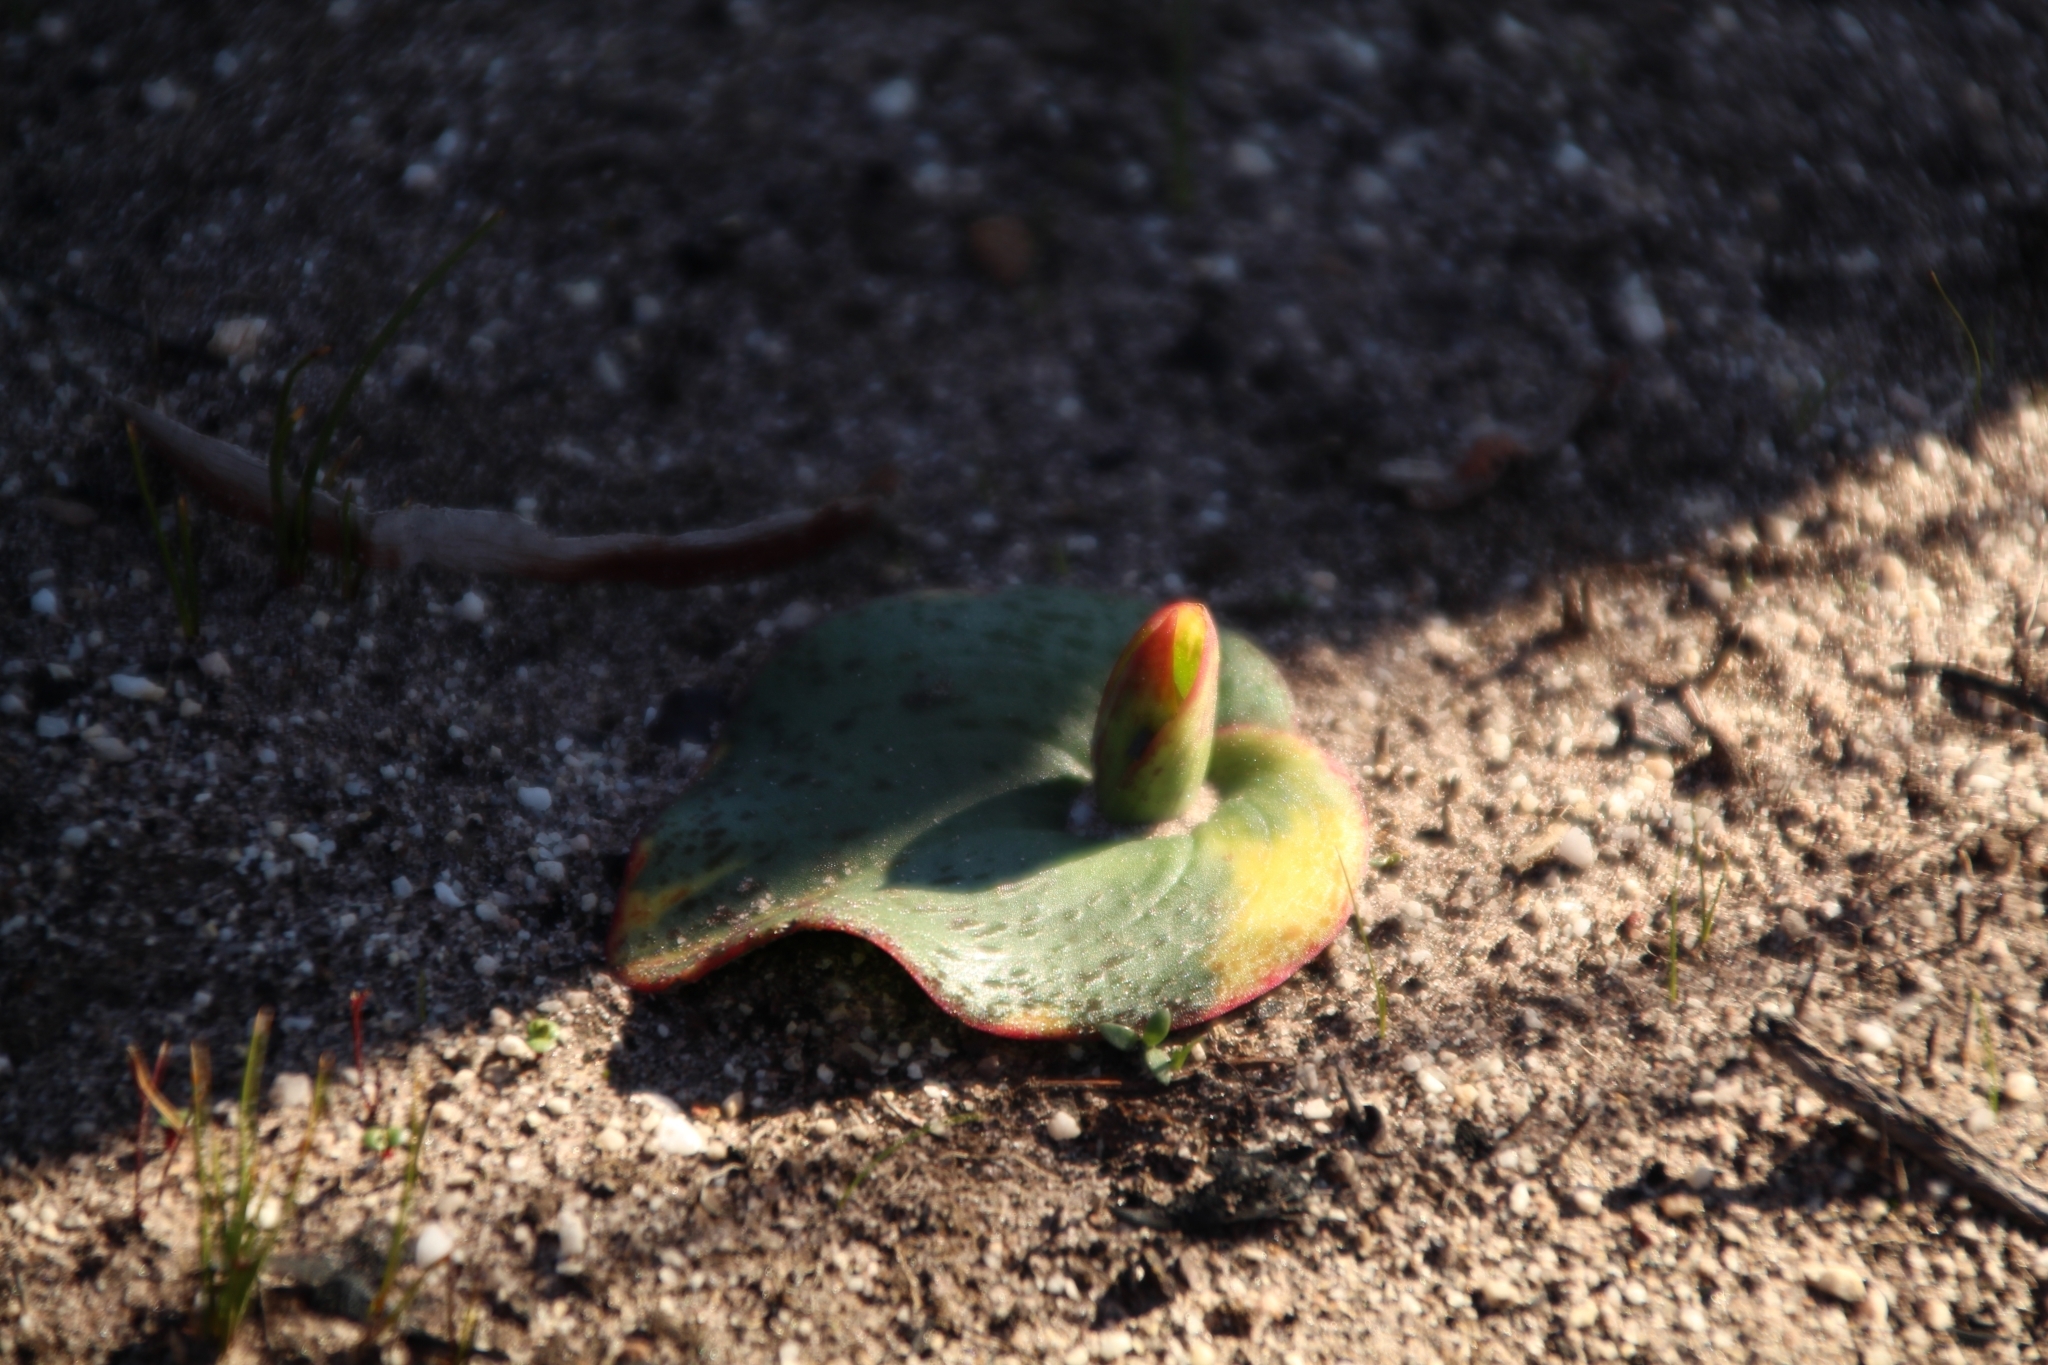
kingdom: Plantae
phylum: Tracheophyta
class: Liliopsida
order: Asparagales
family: Orchidaceae
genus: Pyrorchis
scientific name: Pyrorchis nigricans
